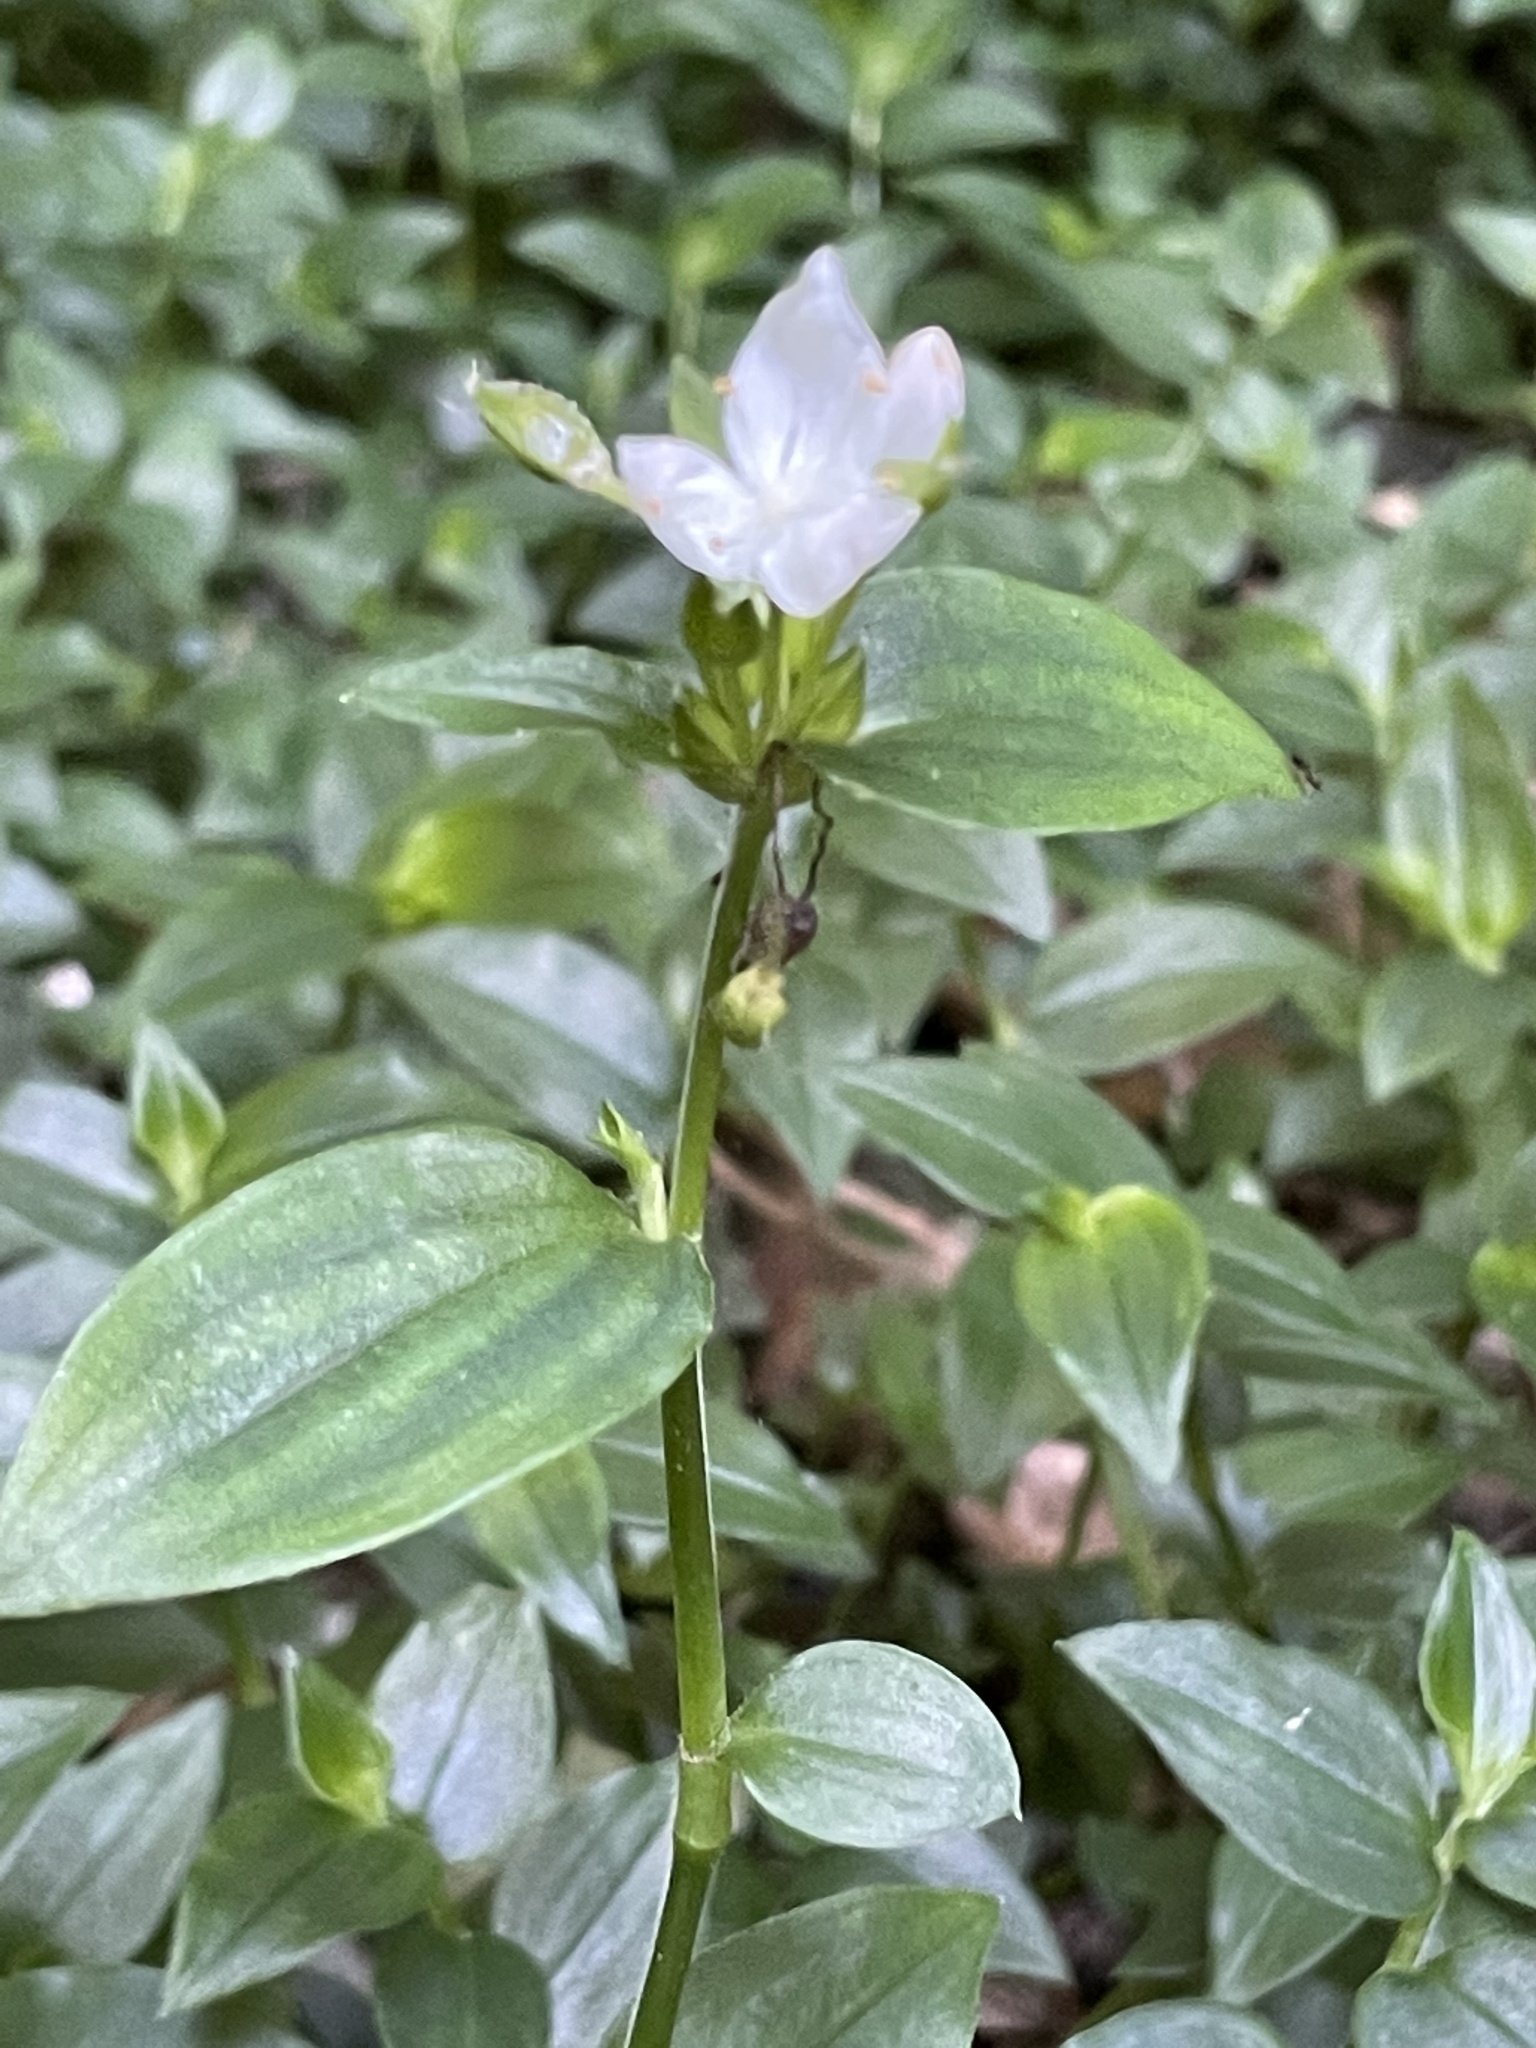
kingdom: Plantae
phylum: Tracheophyta
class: Liliopsida
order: Commelinales
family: Commelinaceae
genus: Tradescantia
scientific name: Tradescantia fluminensis
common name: Wandering-jew
